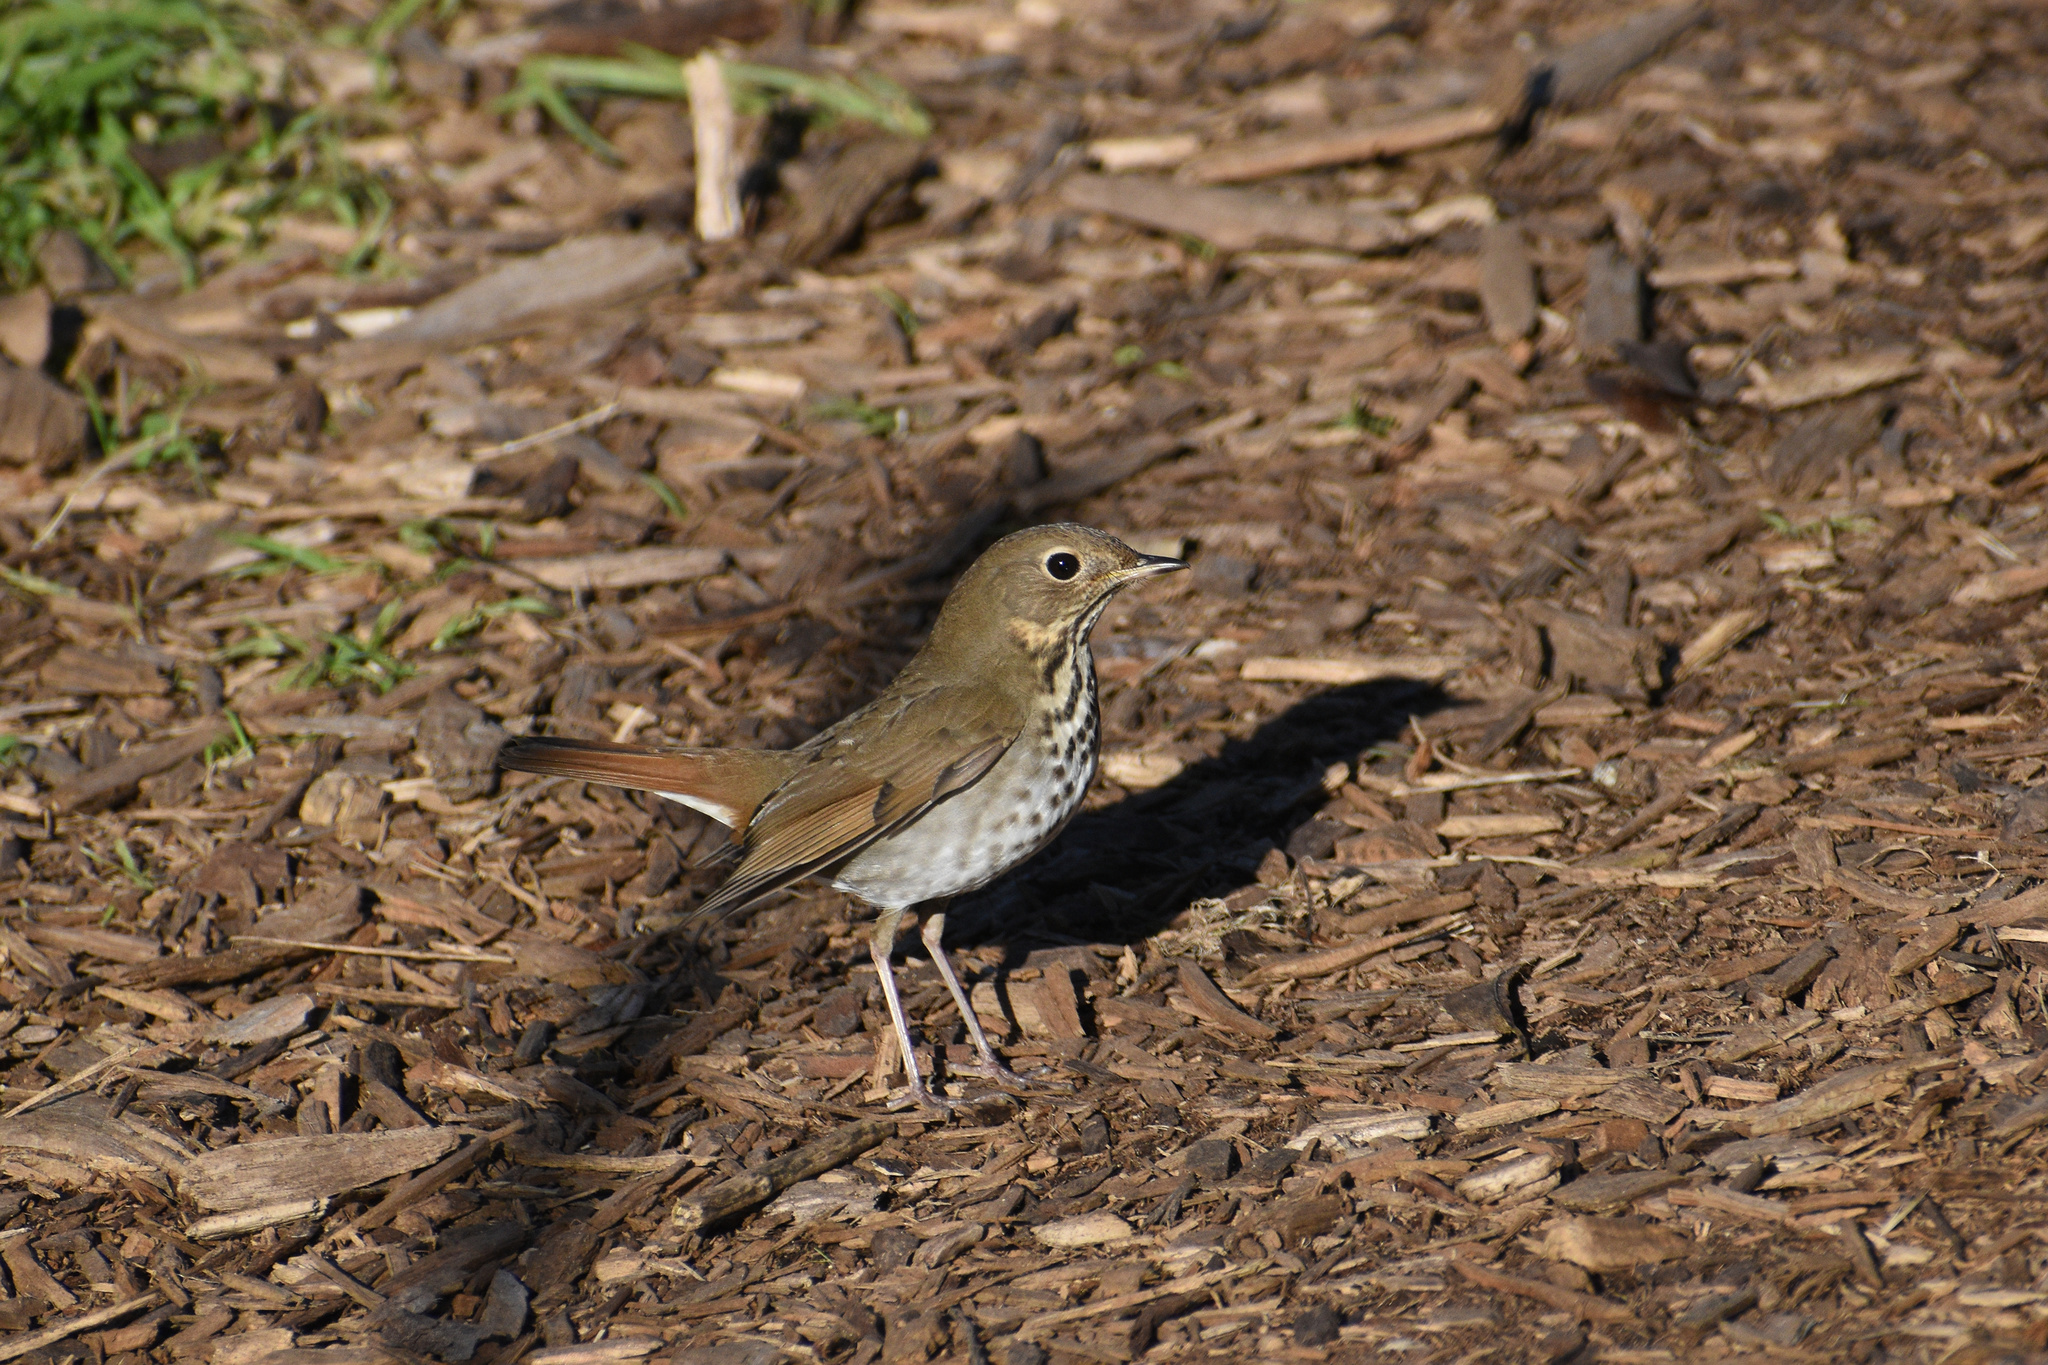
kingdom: Animalia
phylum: Chordata
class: Aves
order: Passeriformes
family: Turdidae
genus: Catharus
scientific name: Catharus guttatus
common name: Hermit thrush
